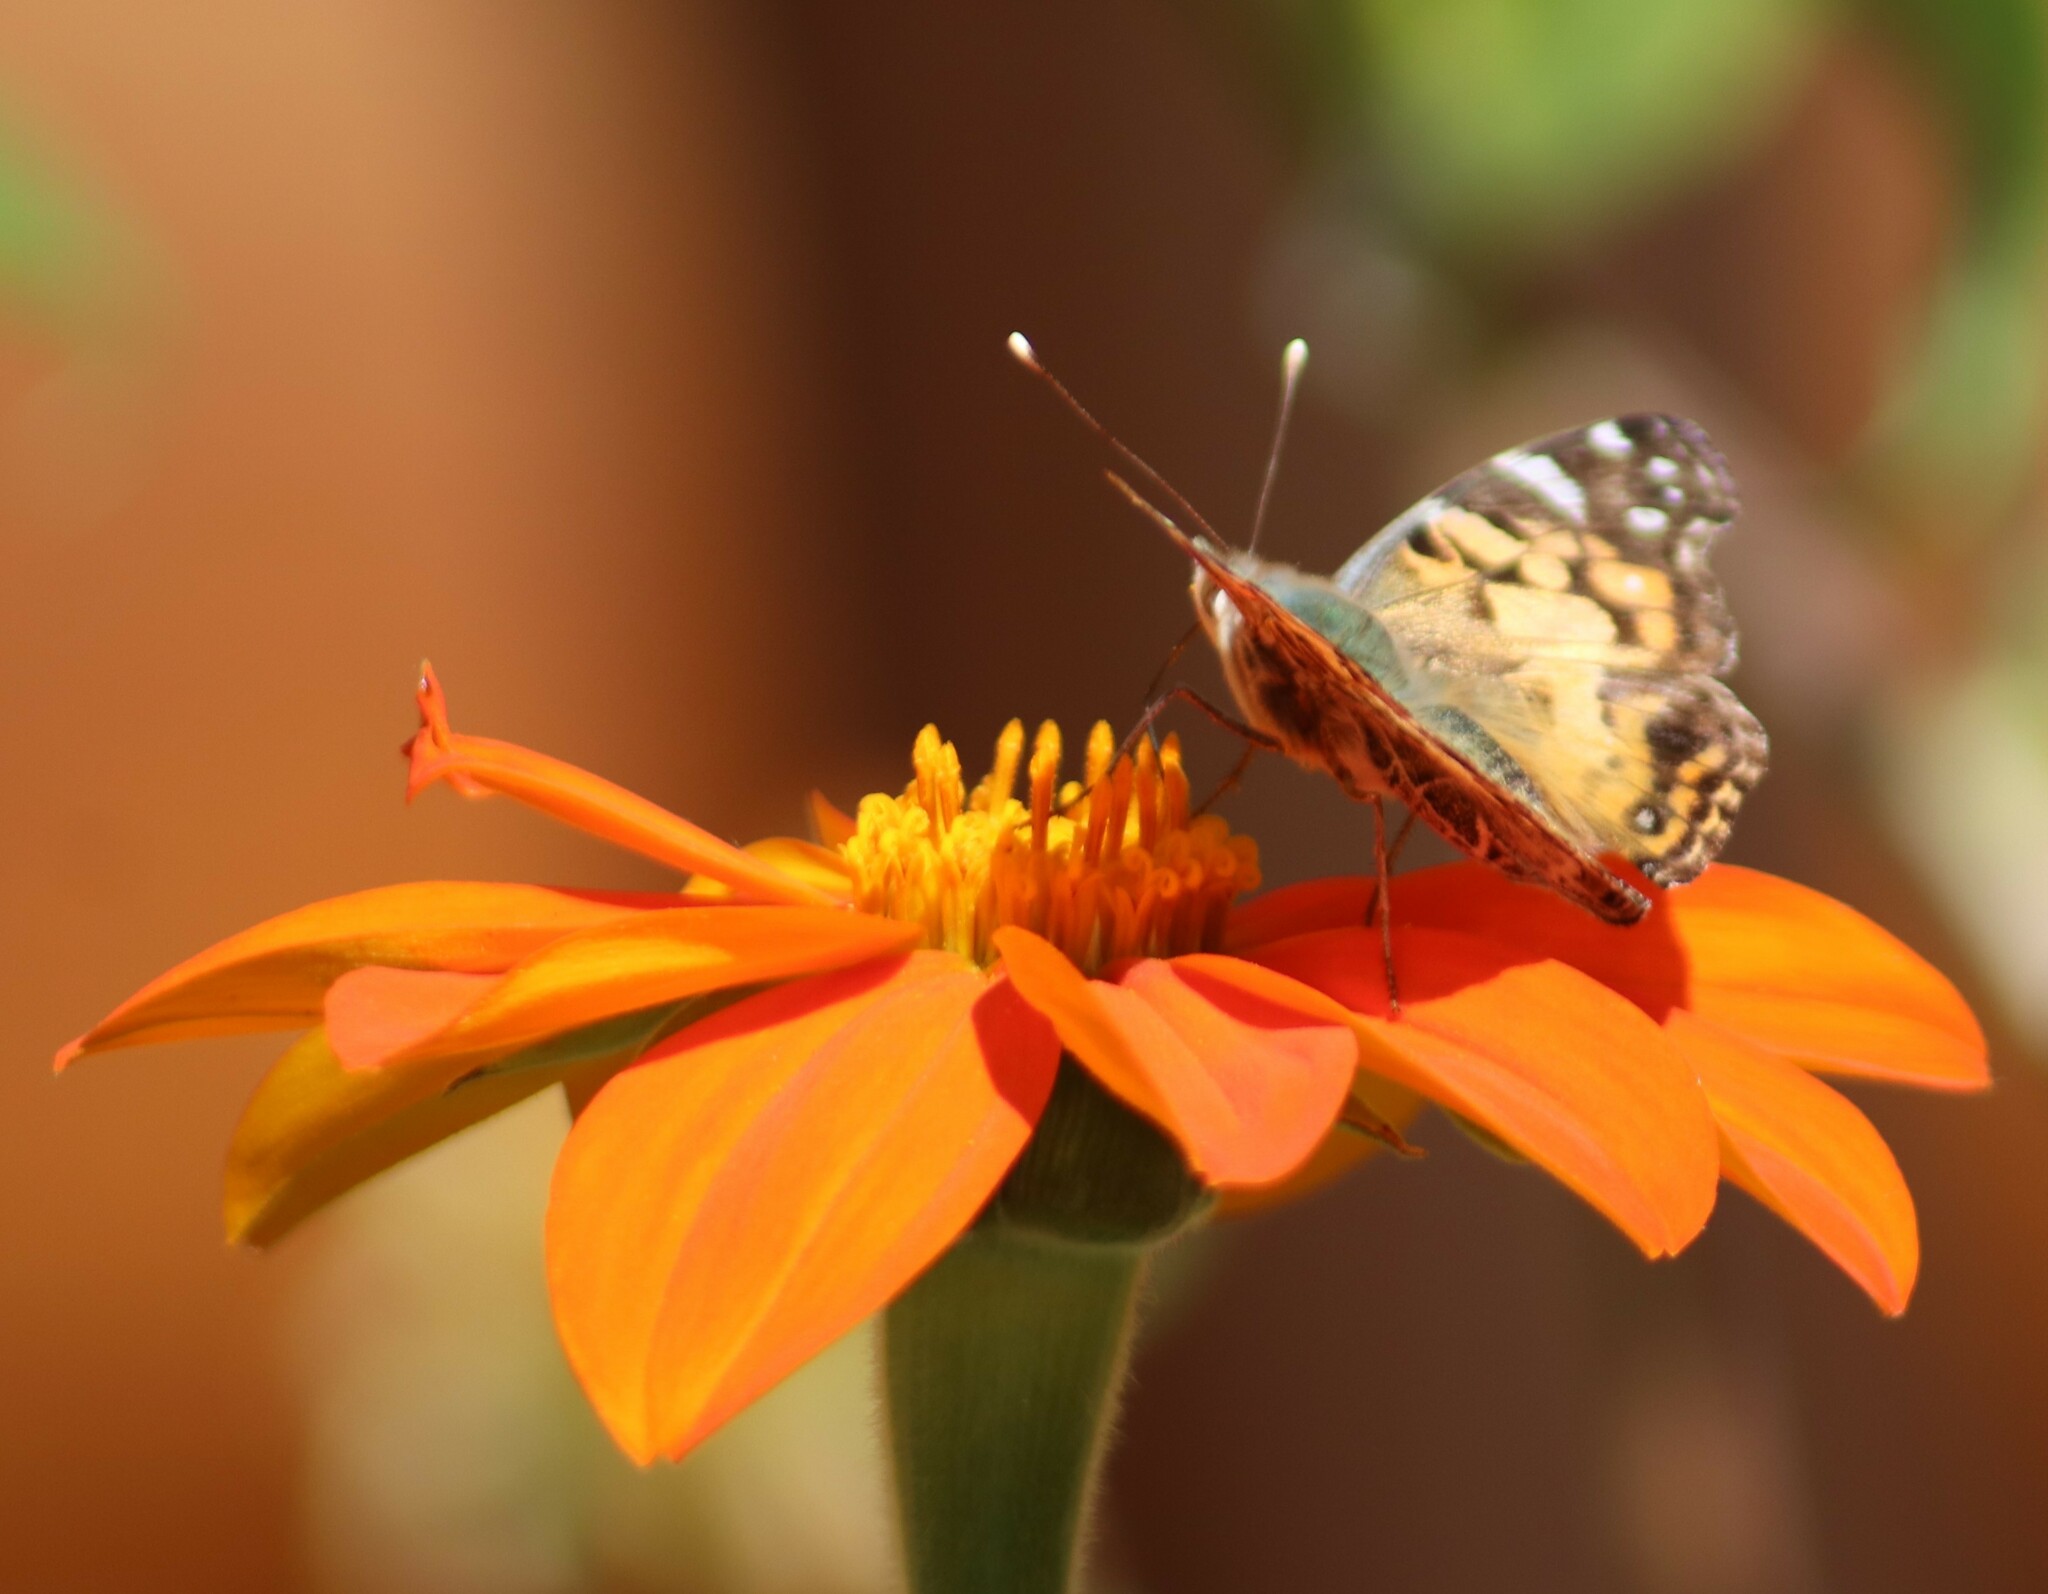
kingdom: Animalia
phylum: Arthropoda
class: Insecta
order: Lepidoptera
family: Nymphalidae
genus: Vanessa
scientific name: Vanessa virginiensis
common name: American lady
